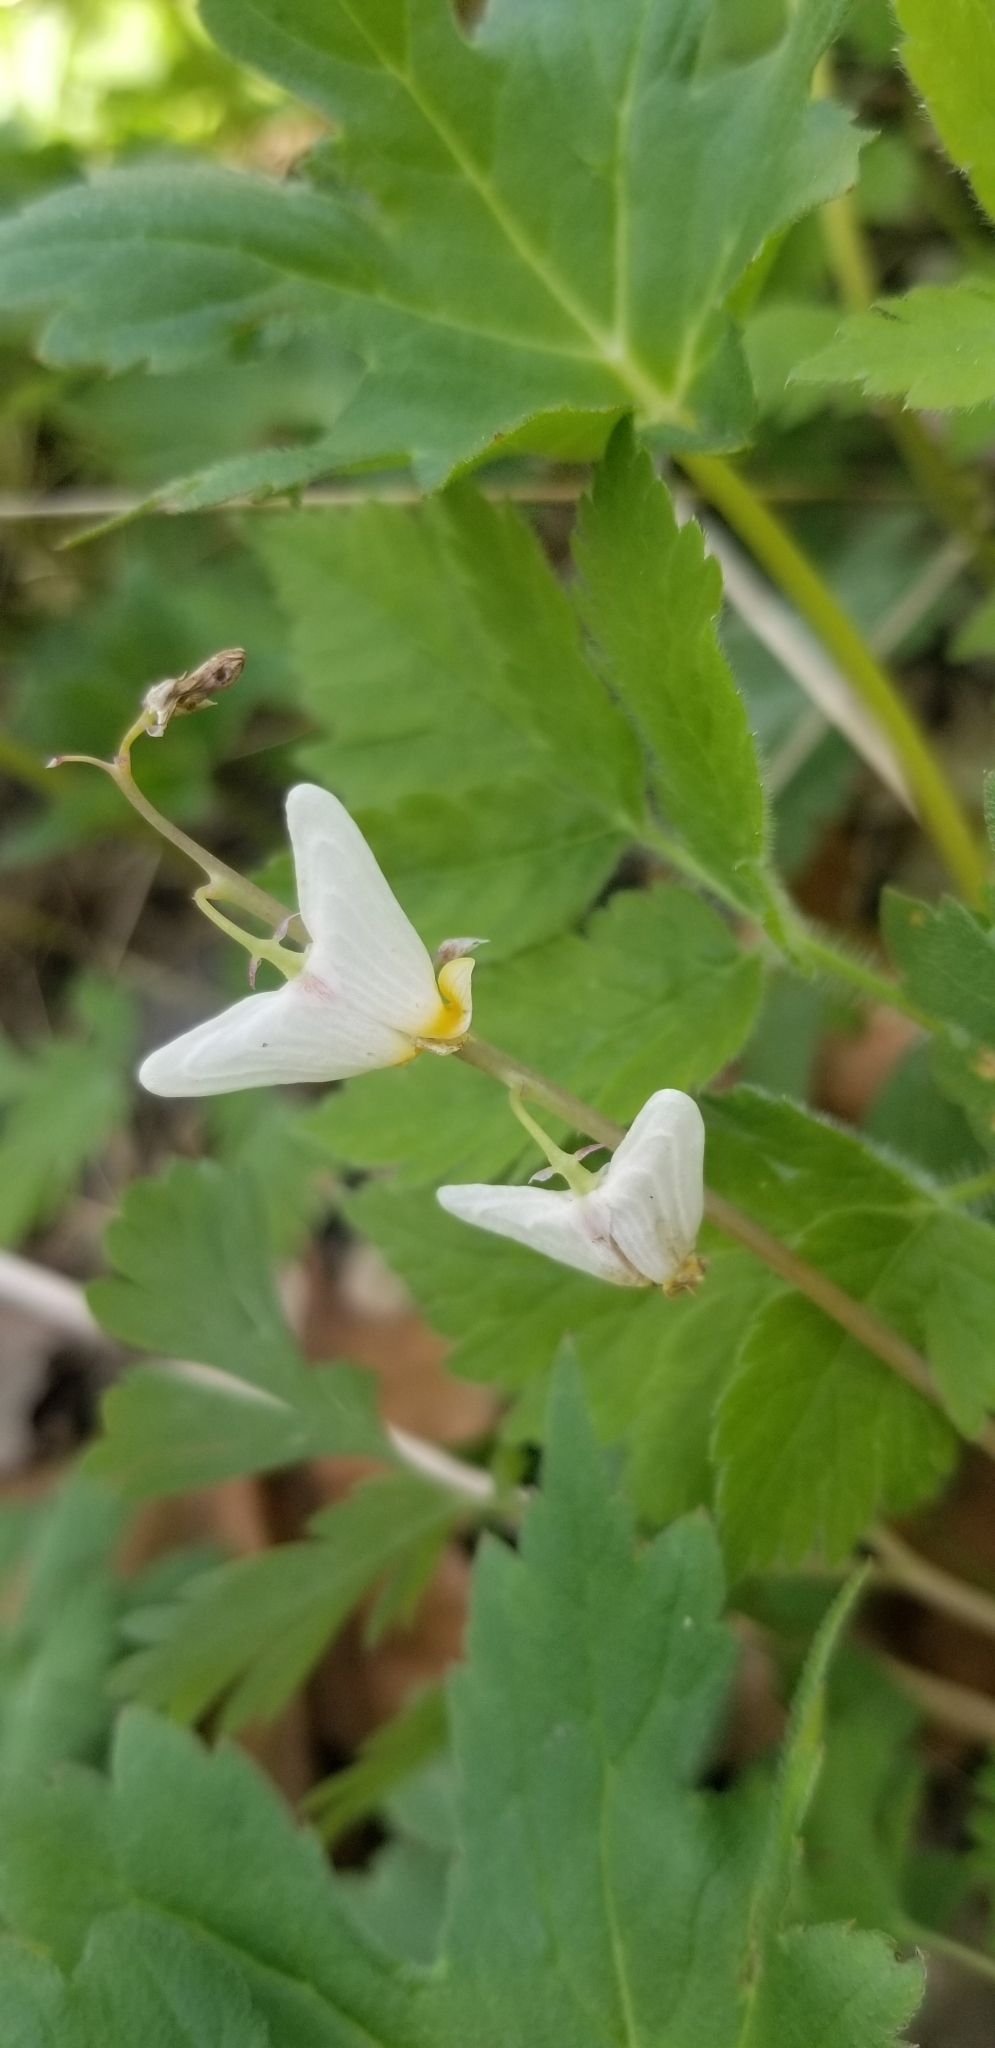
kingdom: Plantae
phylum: Tracheophyta
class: Magnoliopsida
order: Ranunculales
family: Papaveraceae
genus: Dicentra
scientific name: Dicentra cucullaria
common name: Dutchman's breeches
